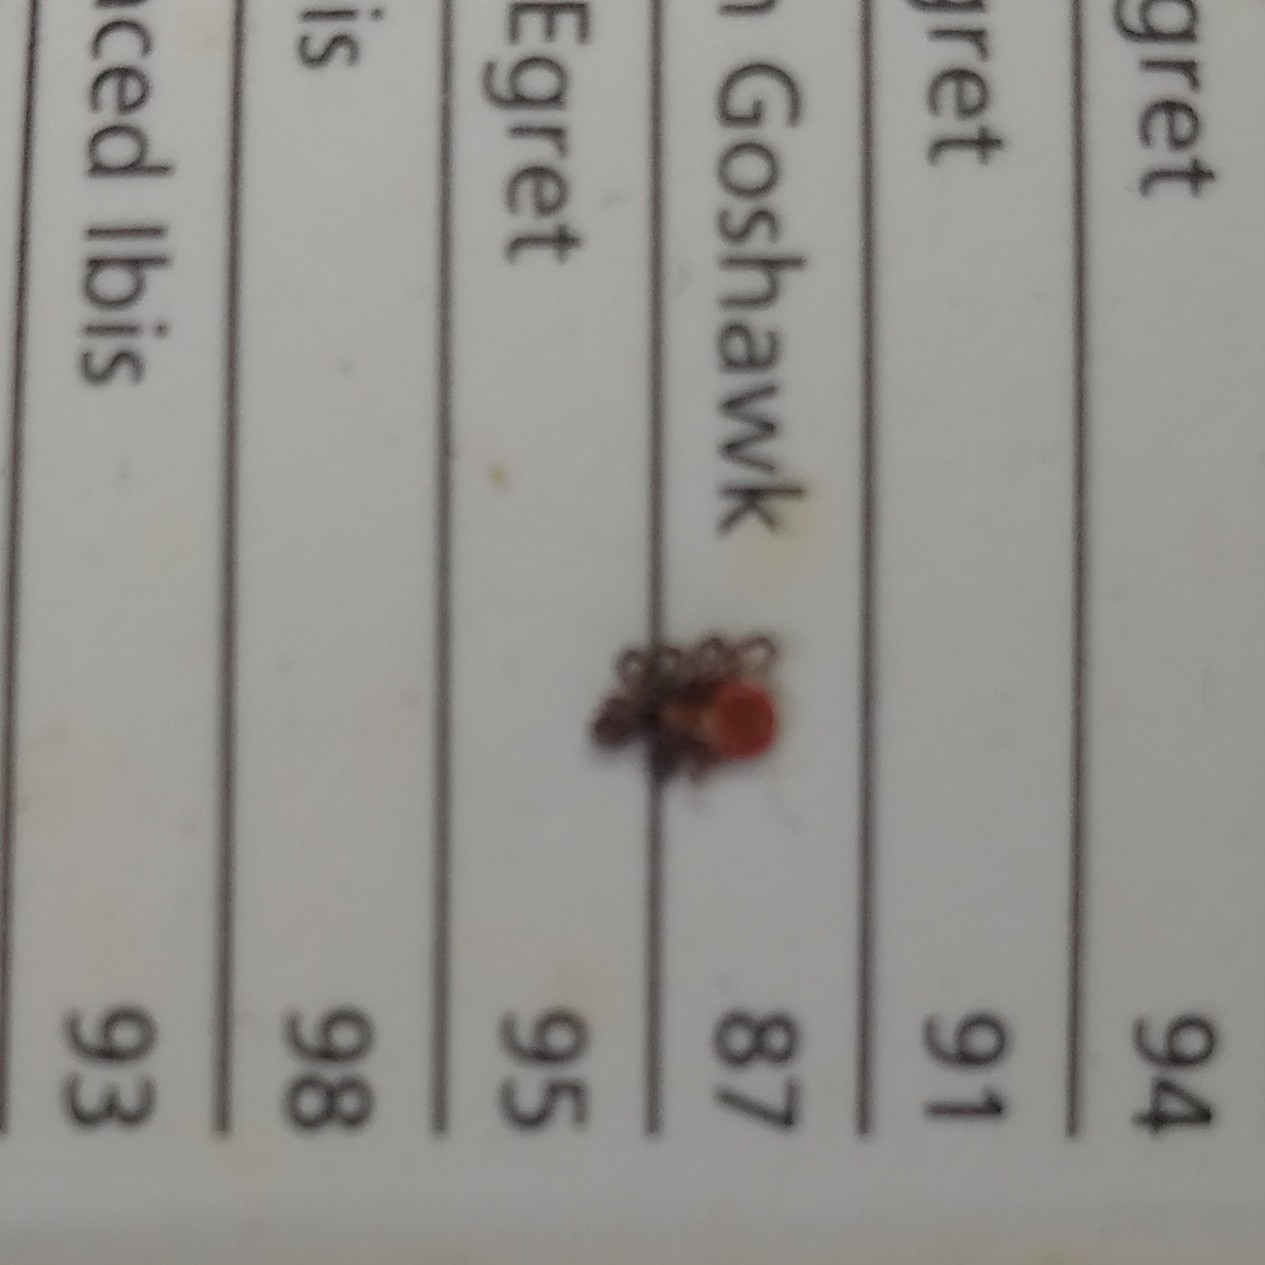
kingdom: Animalia
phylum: Arthropoda
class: Arachnida
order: Ixodida
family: Ixodidae
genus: Ixodes
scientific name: Ixodes scapularis
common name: Black legged tick
